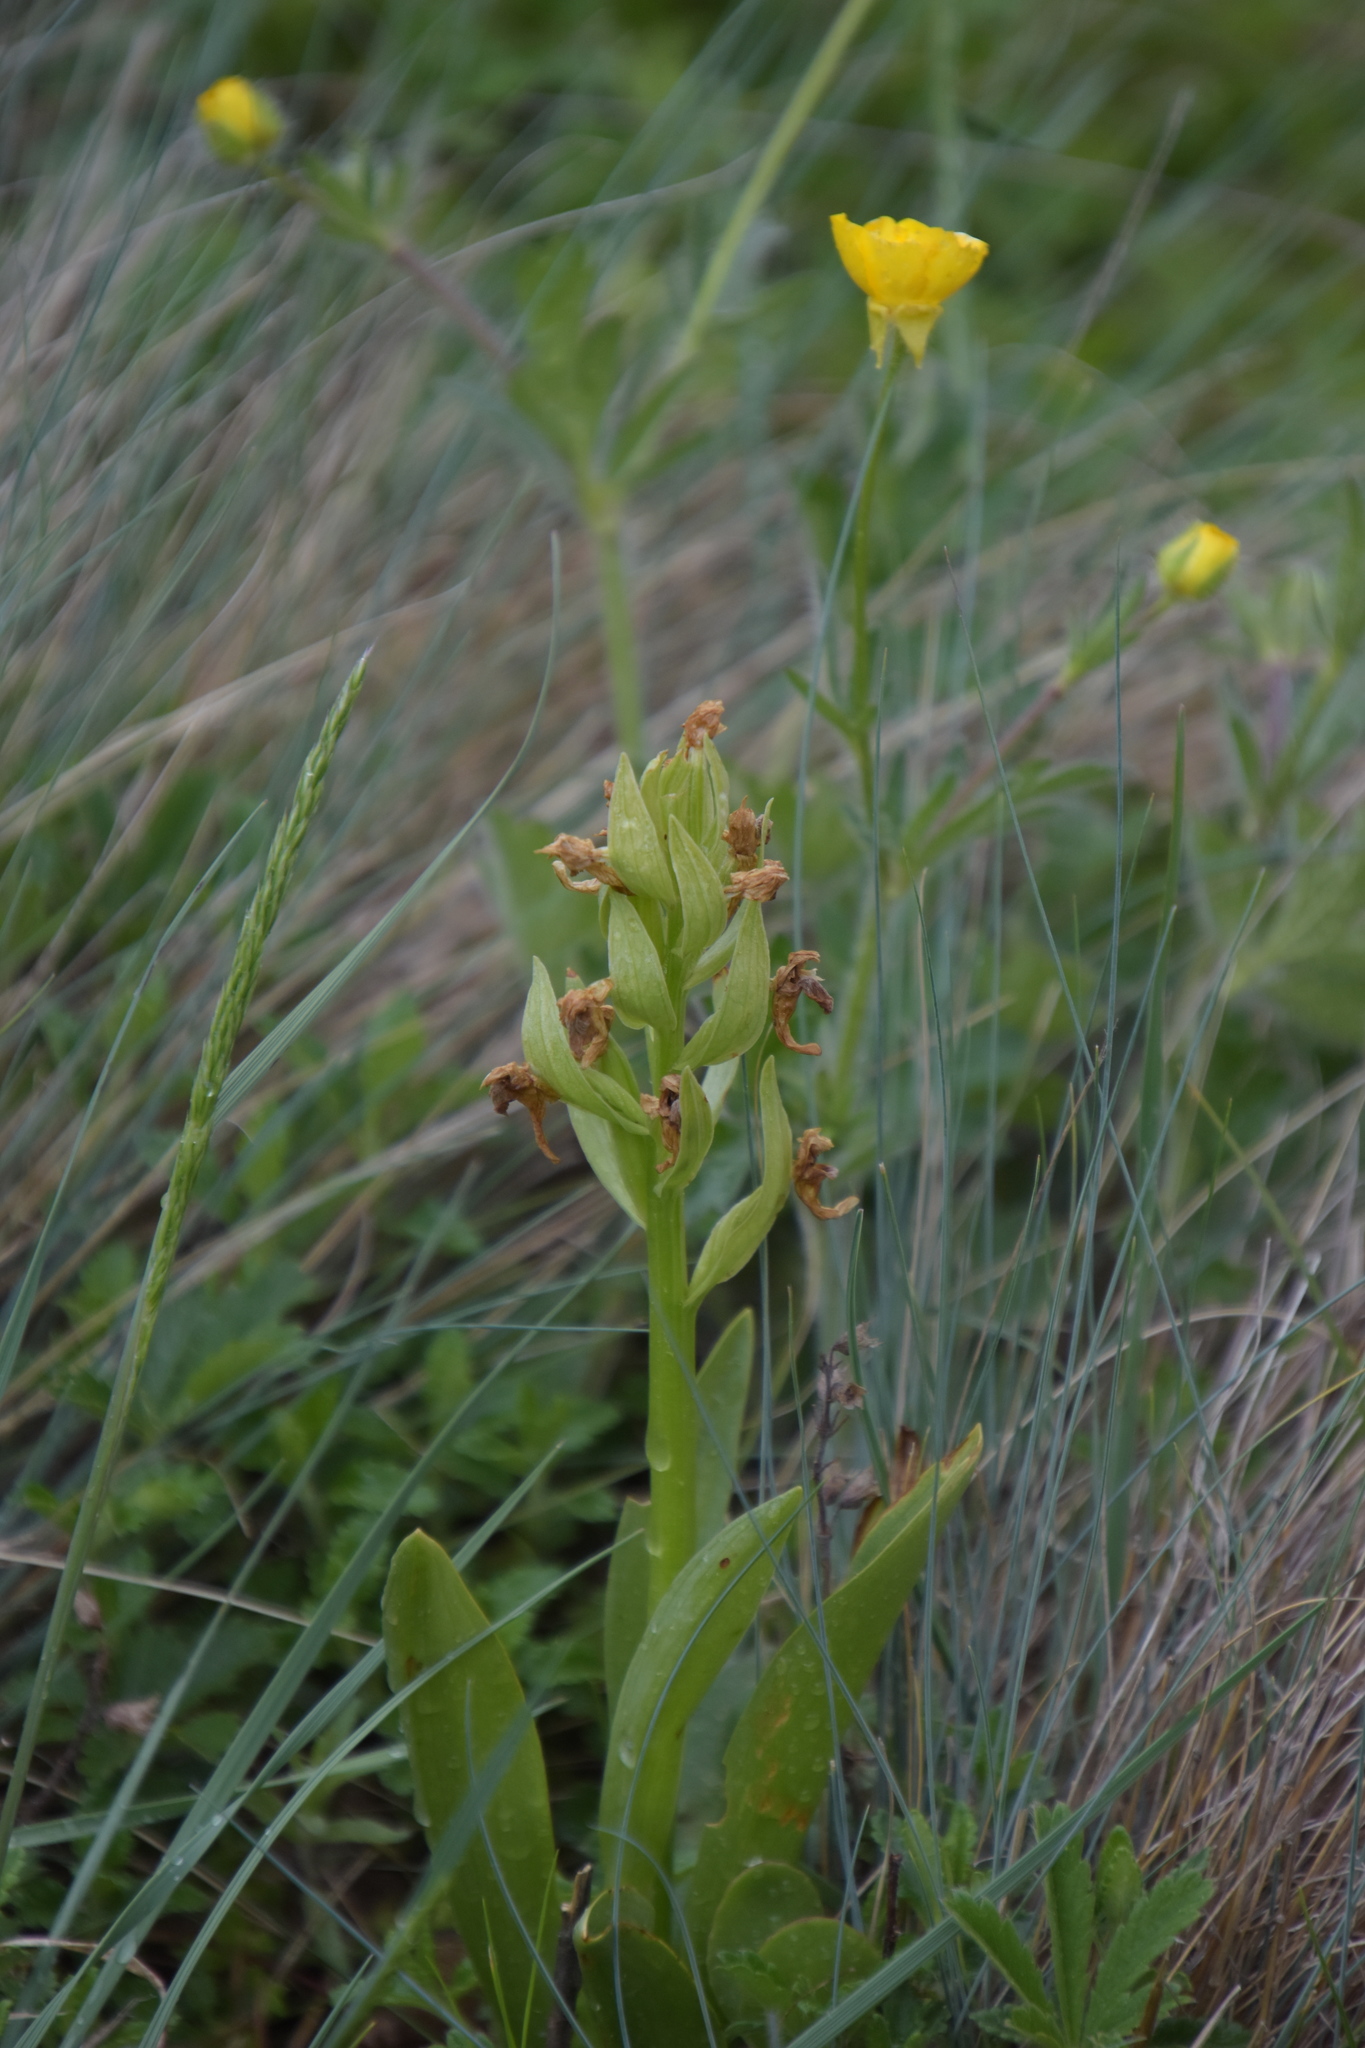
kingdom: Plantae
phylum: Tracheophyta
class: Liliopsida
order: Asparagales
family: Orchidaceae
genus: Dactylorhiza
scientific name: Dactylorhiza sambucina
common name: Elder-flowered orchid
